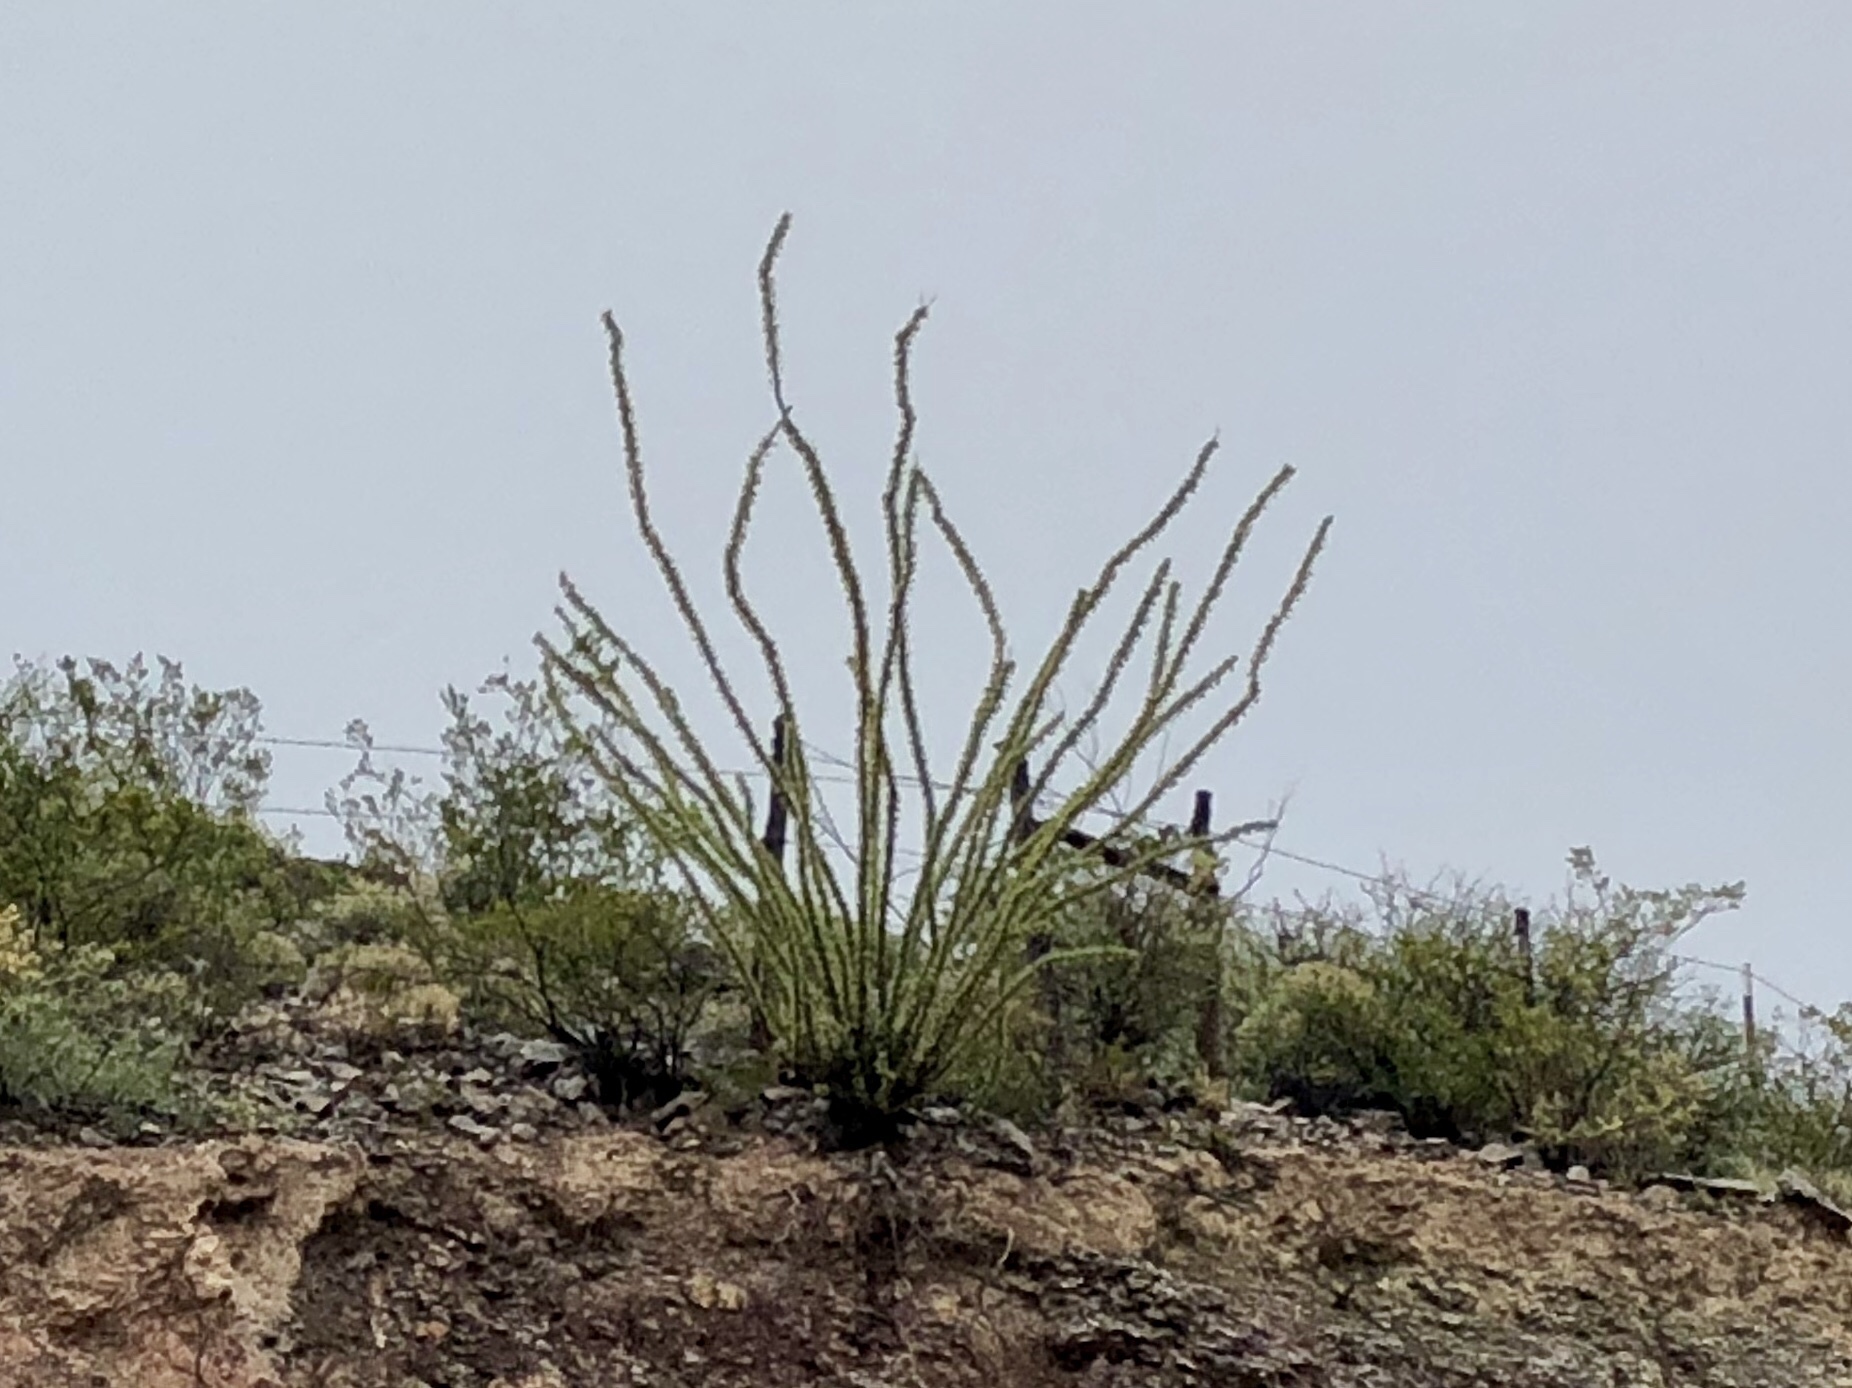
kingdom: Plantae
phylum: Tracheophyta
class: Magnoliopsida
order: Ericales
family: Fouquieriaceae
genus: Fouquieria
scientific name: Fouquieria splendens
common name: Vine-cactus
